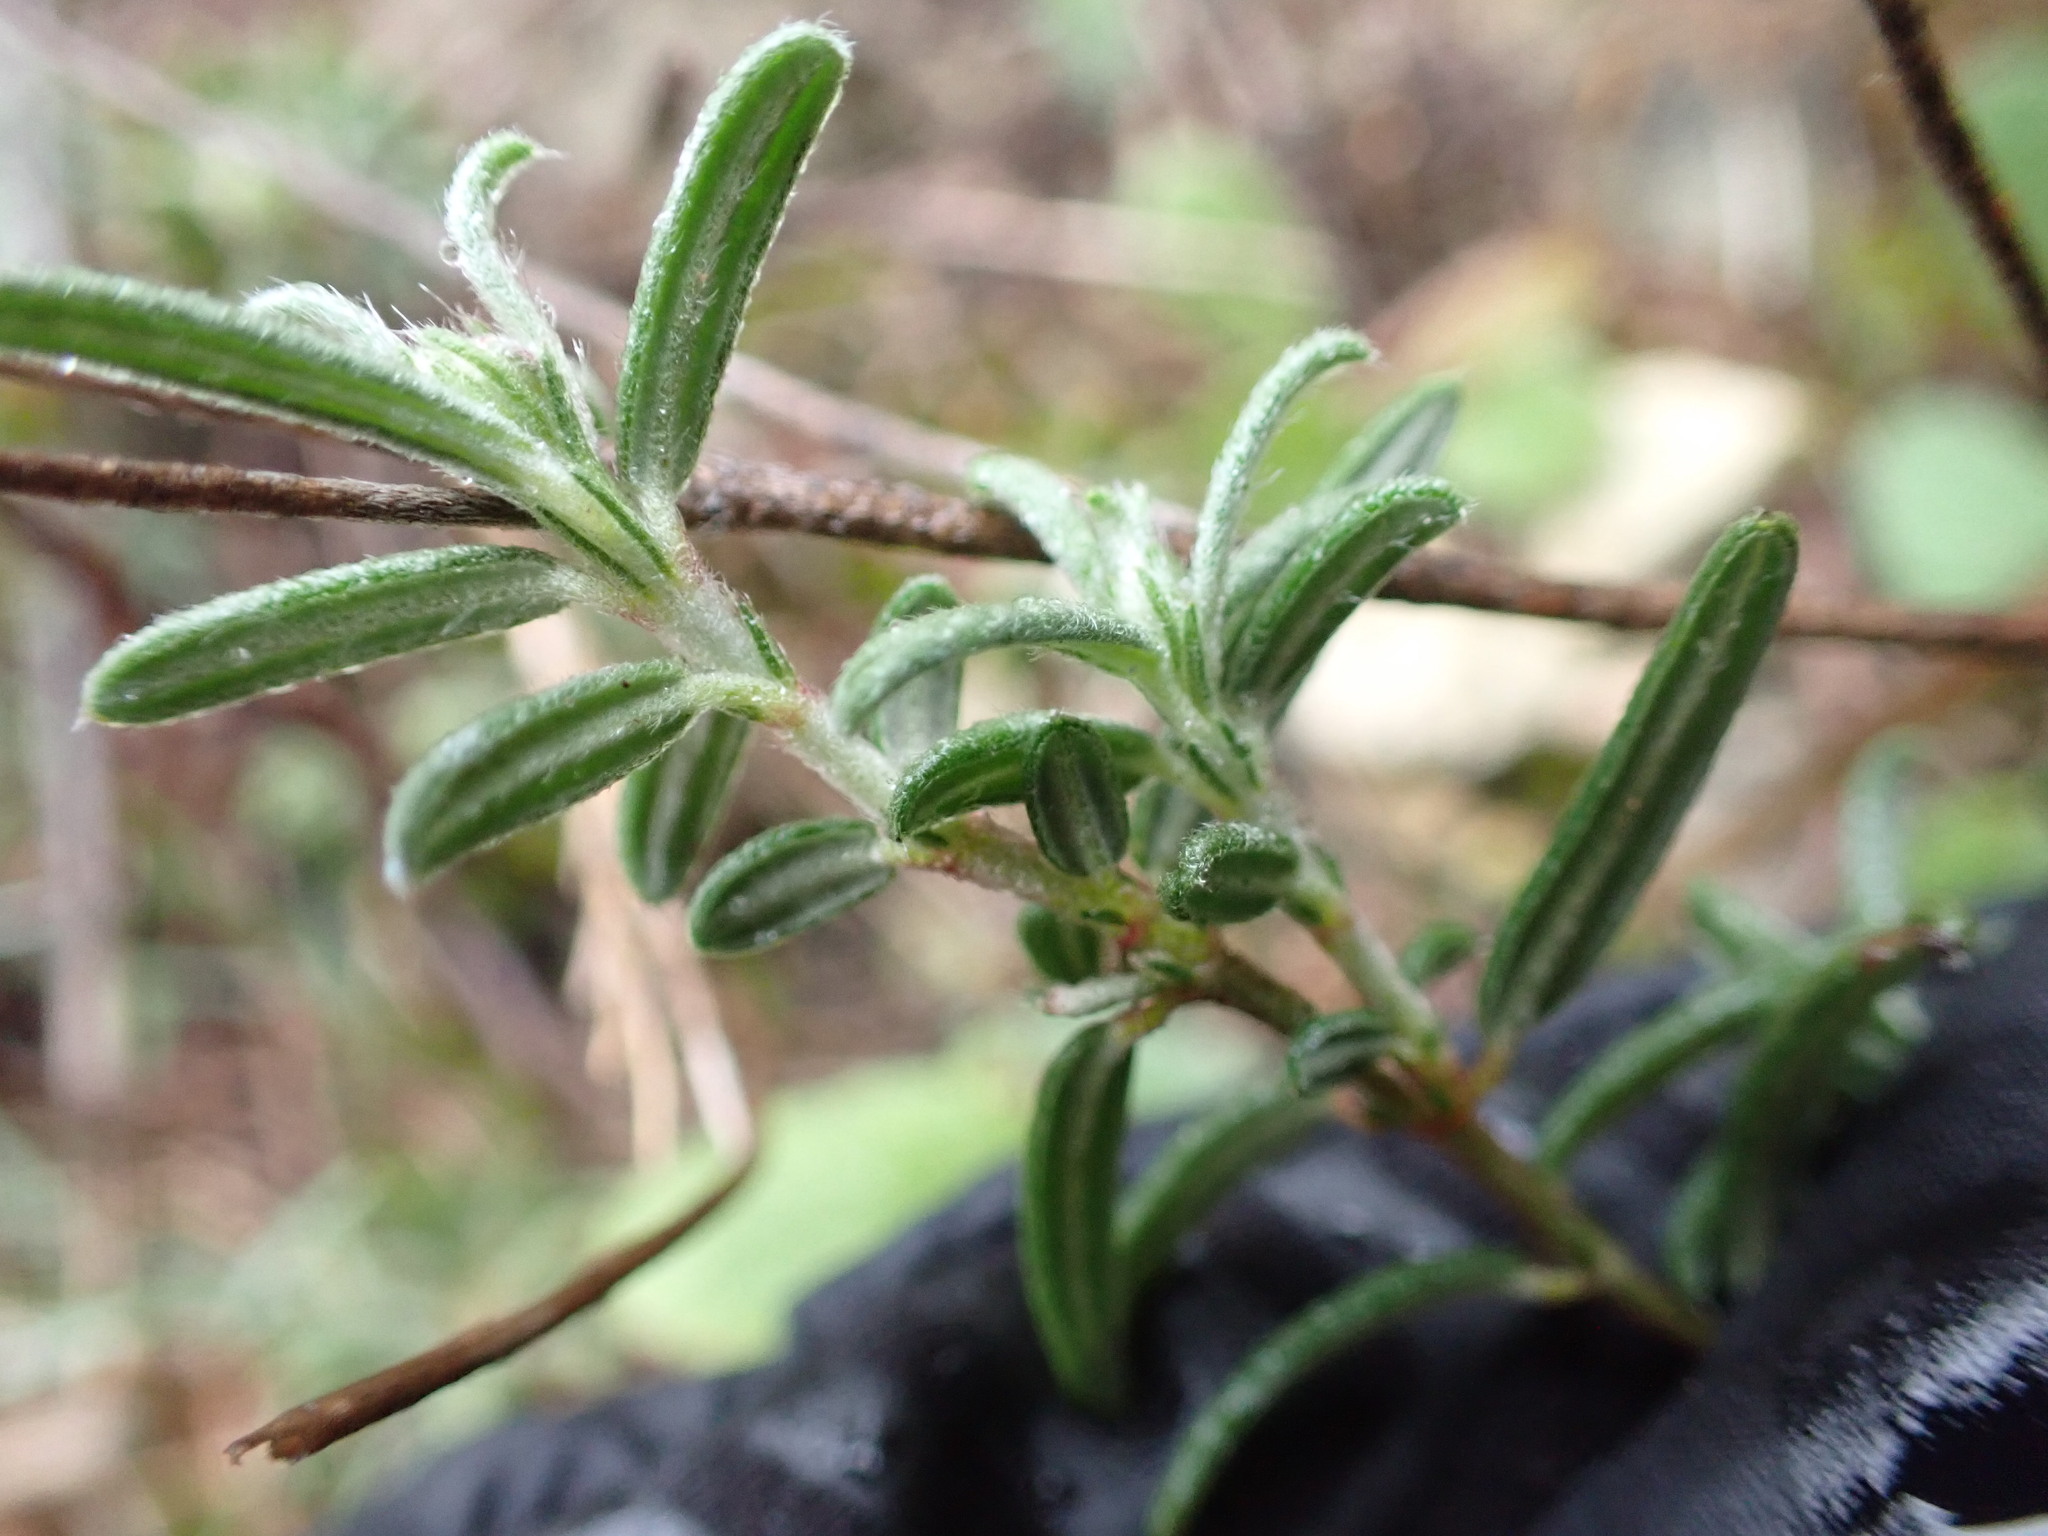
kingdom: Plantae
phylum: Tracheophyta
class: Magnoliopsida
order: Malvales
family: Cistaceae
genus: Helianthemum
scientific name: Helianthemum apenninum
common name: White rock-rose
